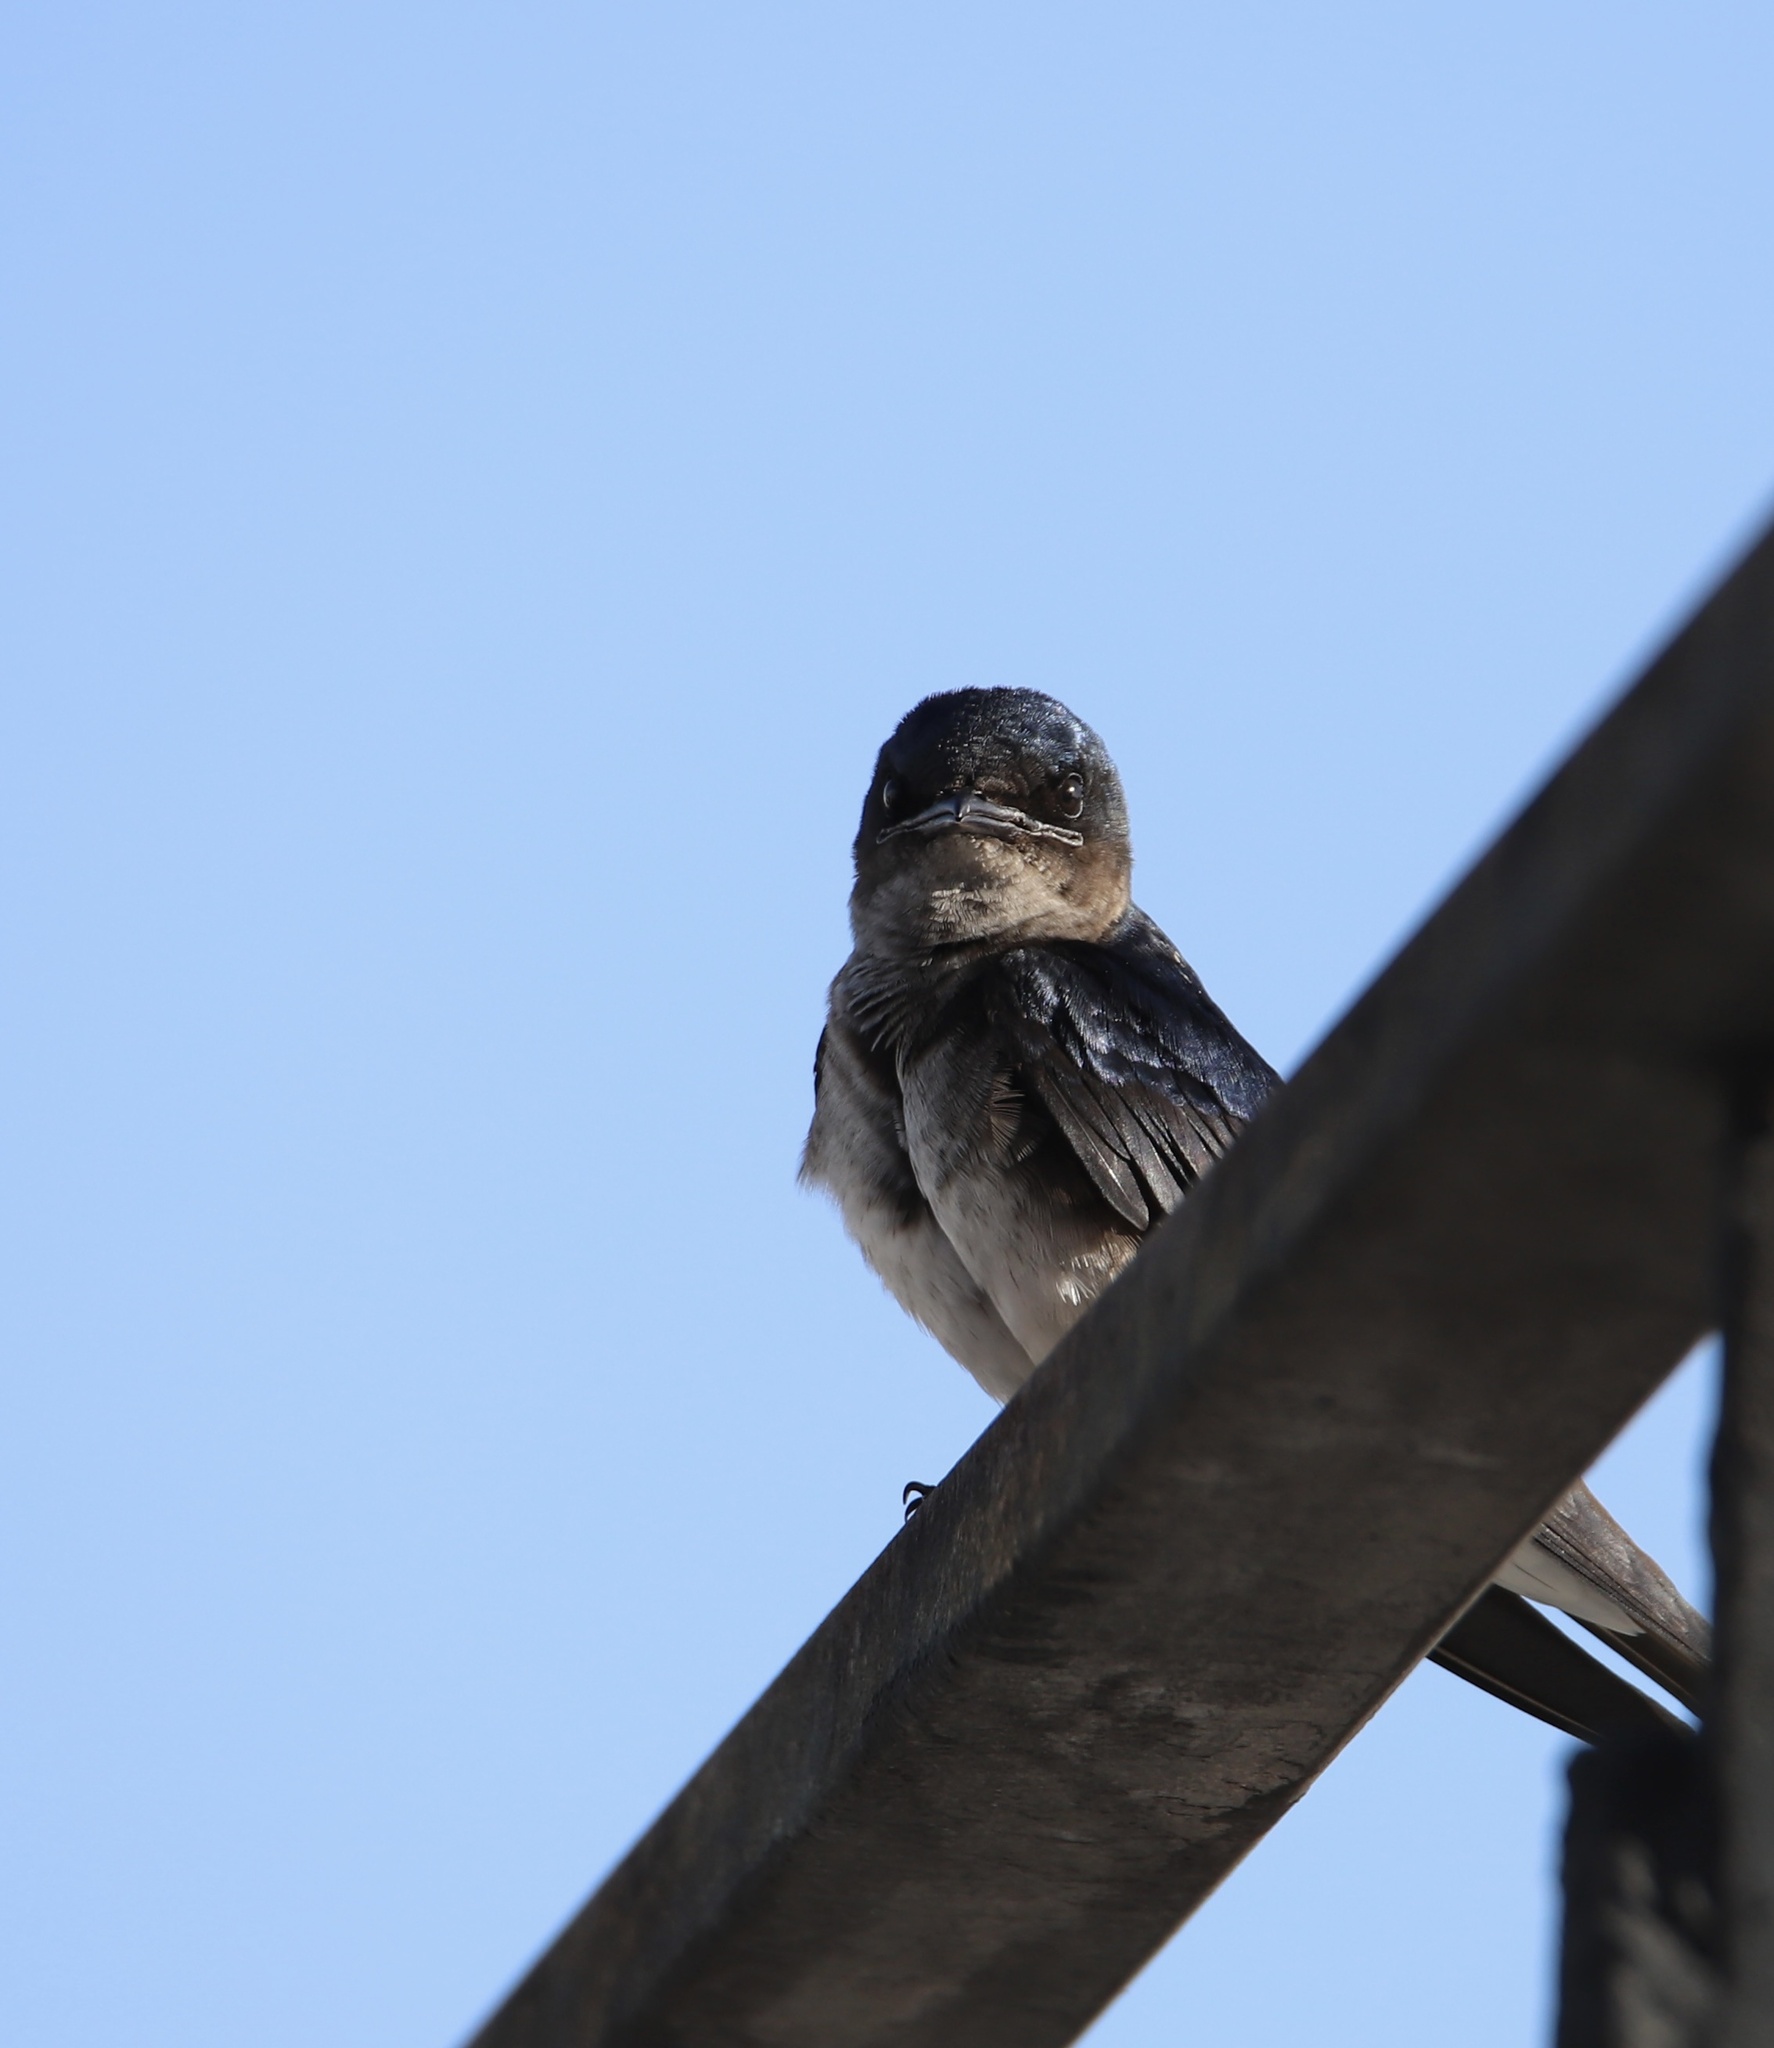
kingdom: Animalia
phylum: Chordata
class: Aves
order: Passeriformes
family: Hirundinidae
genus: Progne
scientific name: Progne chalybea
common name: Grey-breasted martin
